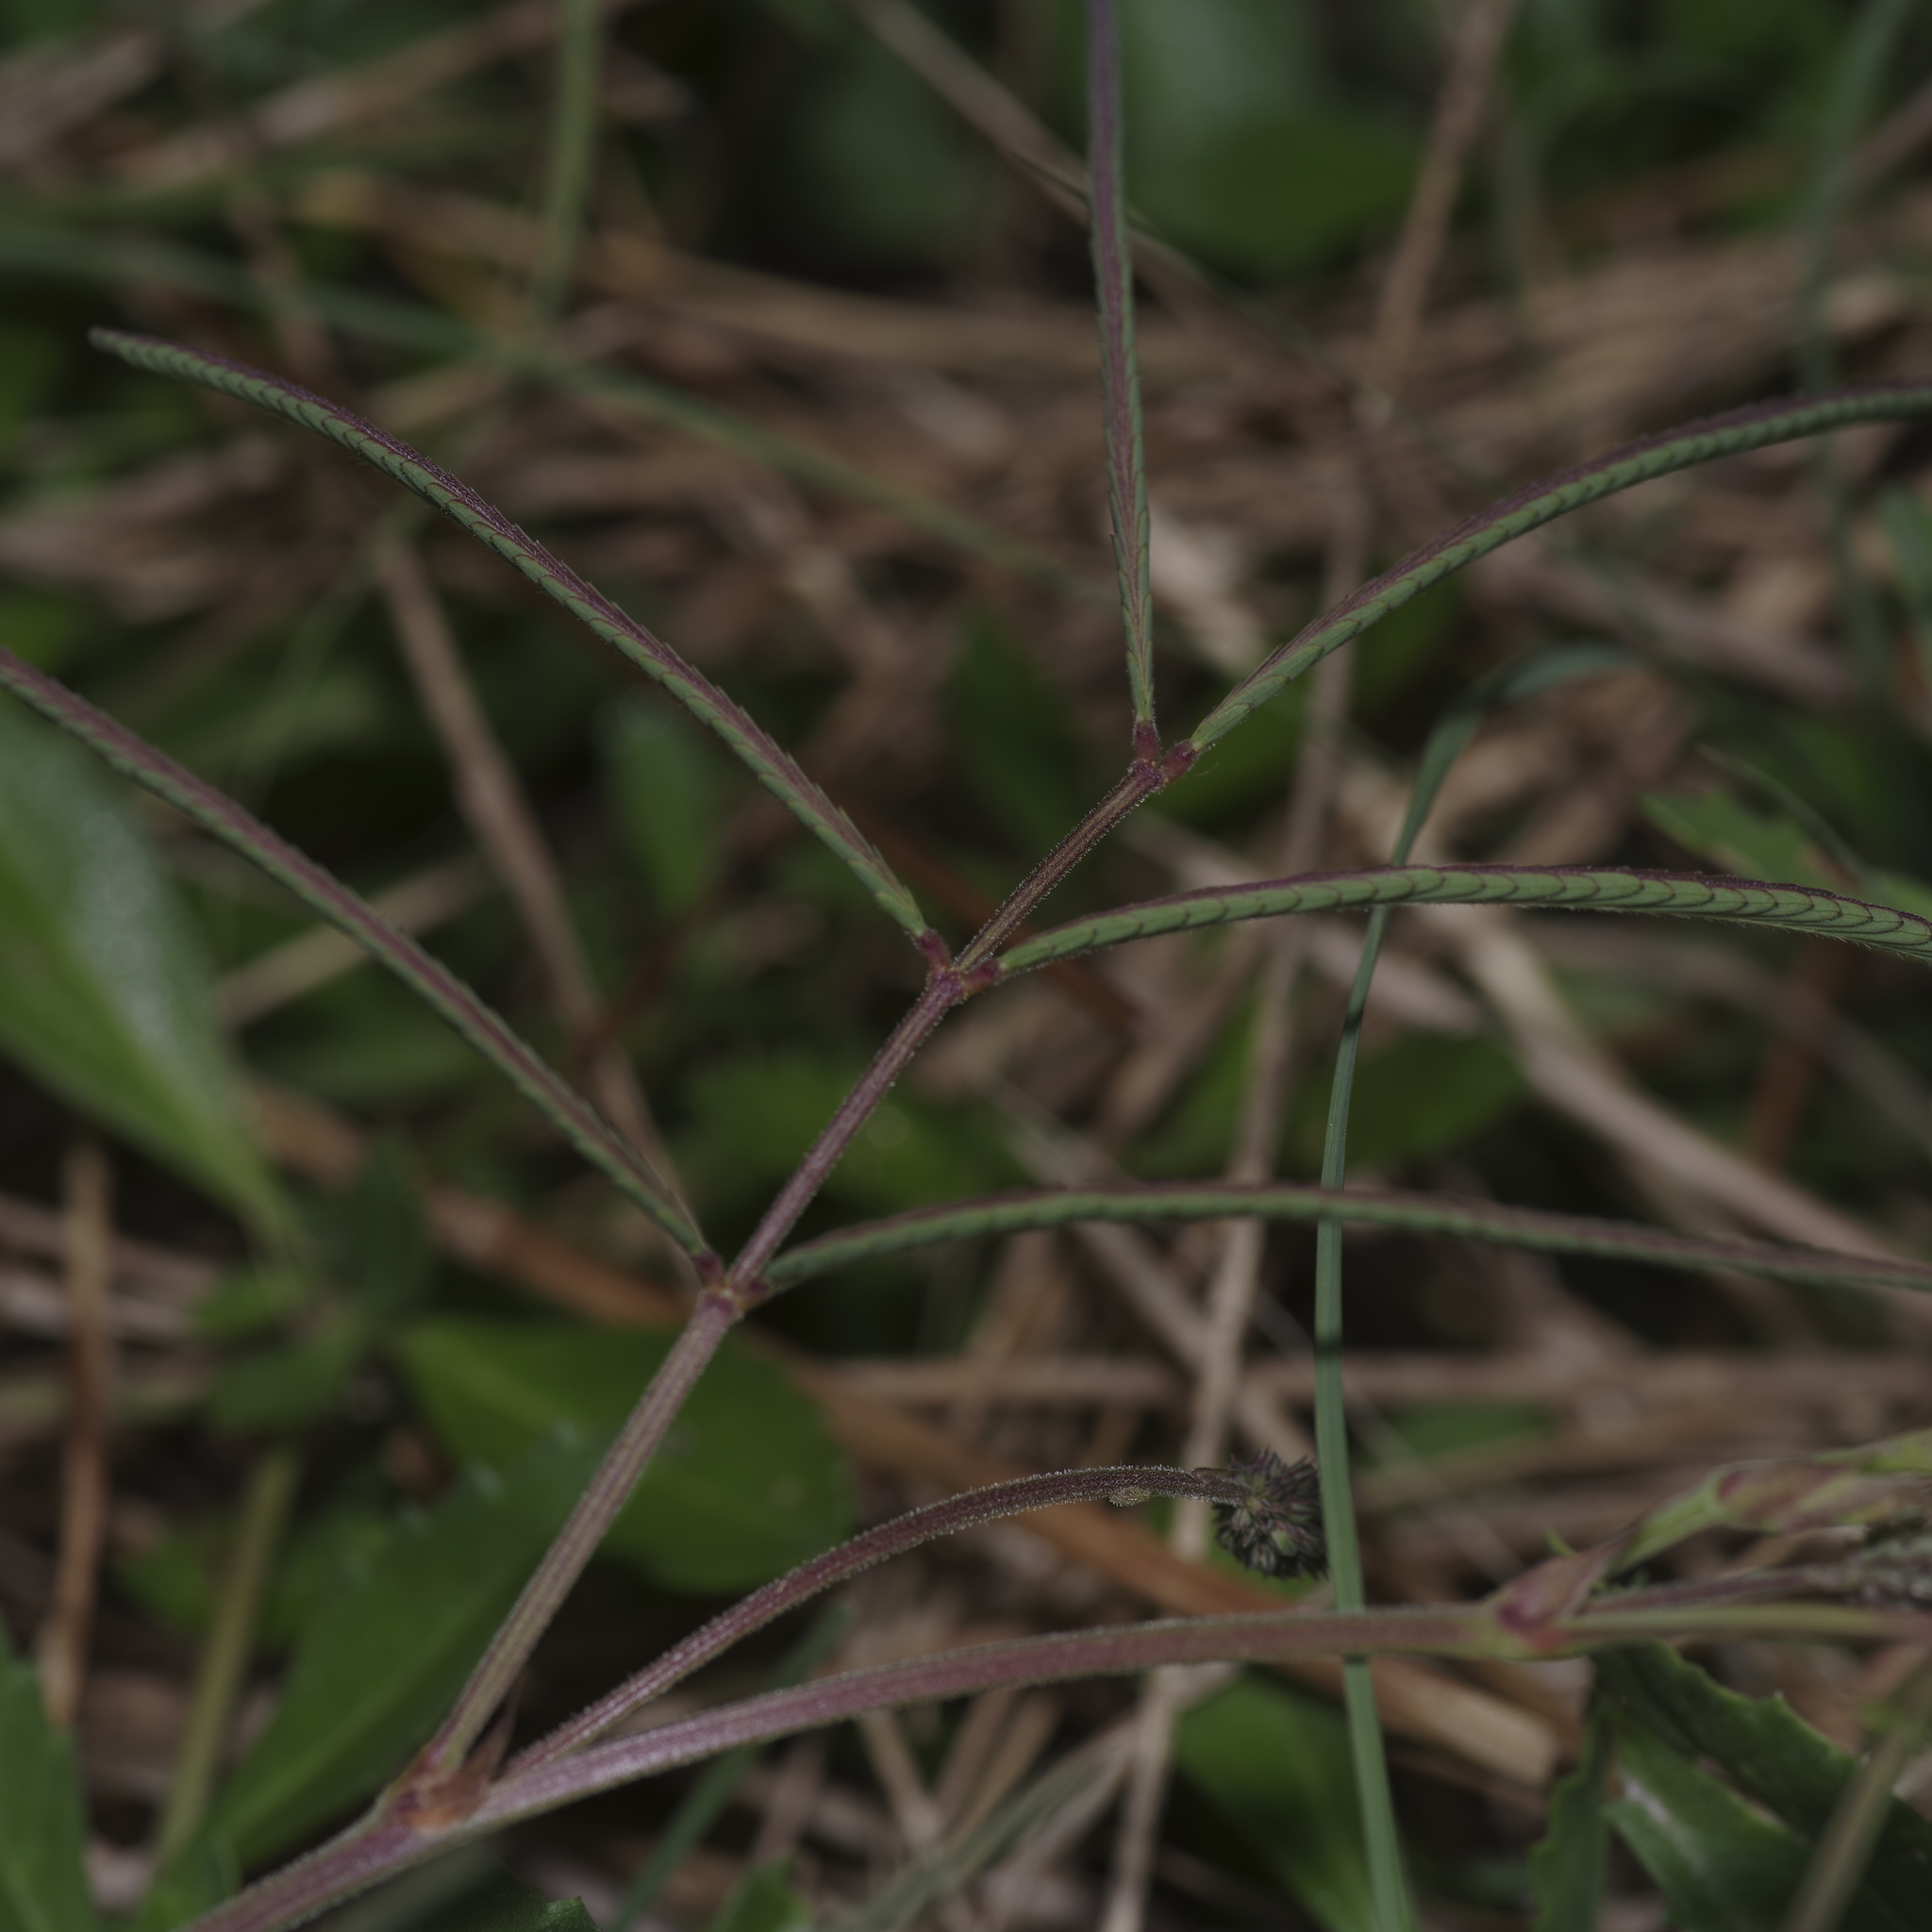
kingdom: Plantae
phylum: Tracheophyta
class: Magnoliopsida
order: Fabales
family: Fabaceae
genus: Neptunia
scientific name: Neptunia pubescens
